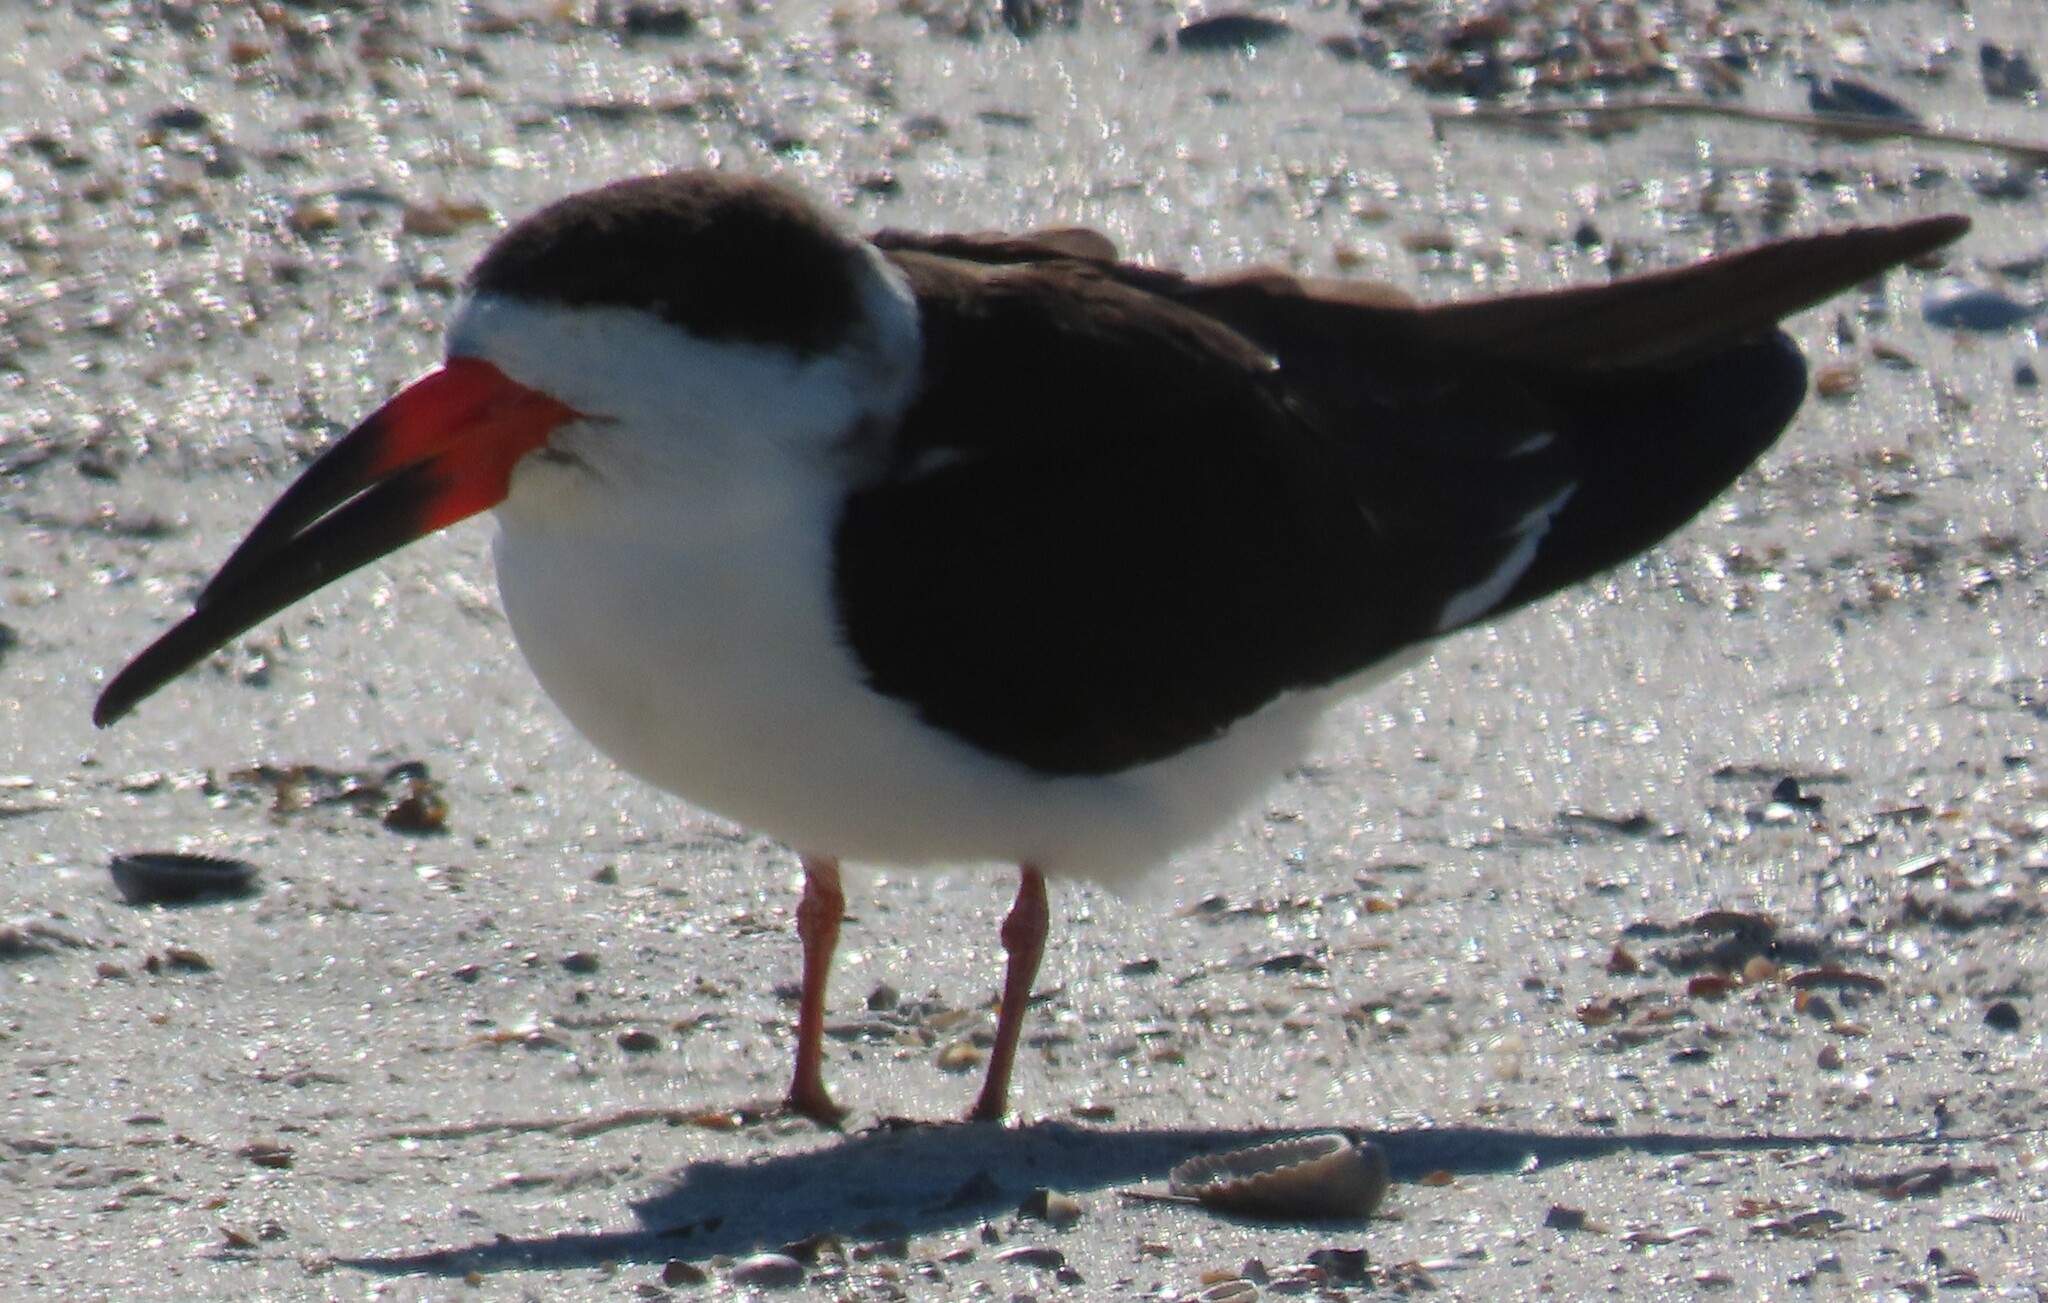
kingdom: Animalia
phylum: Chordata
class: Aves
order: Charadriiformes
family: Laridae
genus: Rynchops
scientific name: Rynchops niger
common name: Black skimmer
